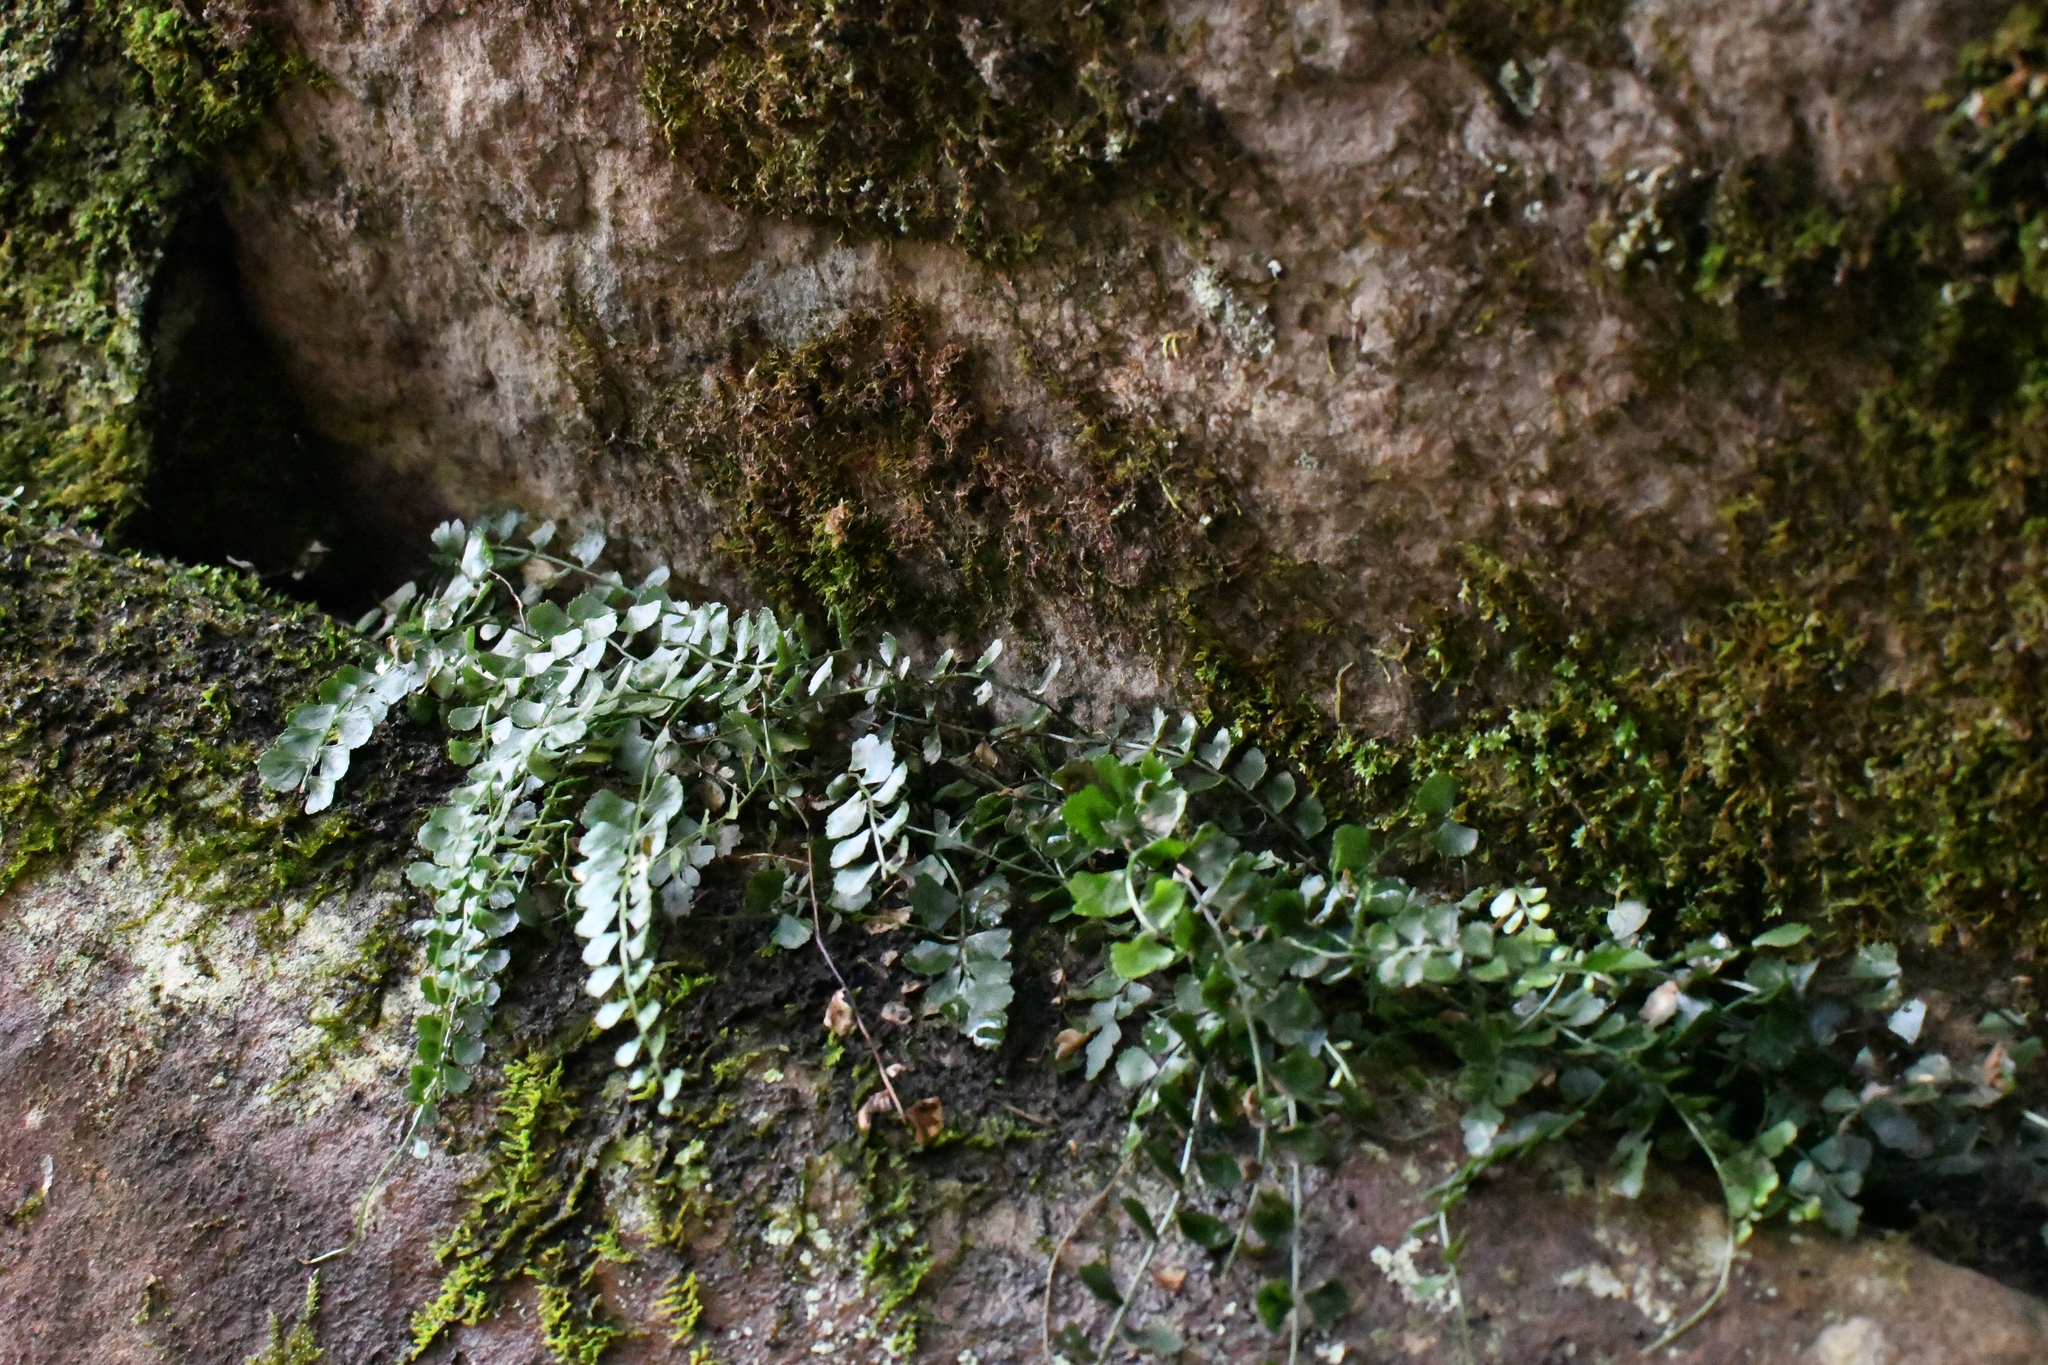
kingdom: Plantae
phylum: Tracheophyta
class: Polypodiopsida
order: Polypodiales
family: Aspleniaceae
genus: Asplenium
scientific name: Asplenium flabellifolium
